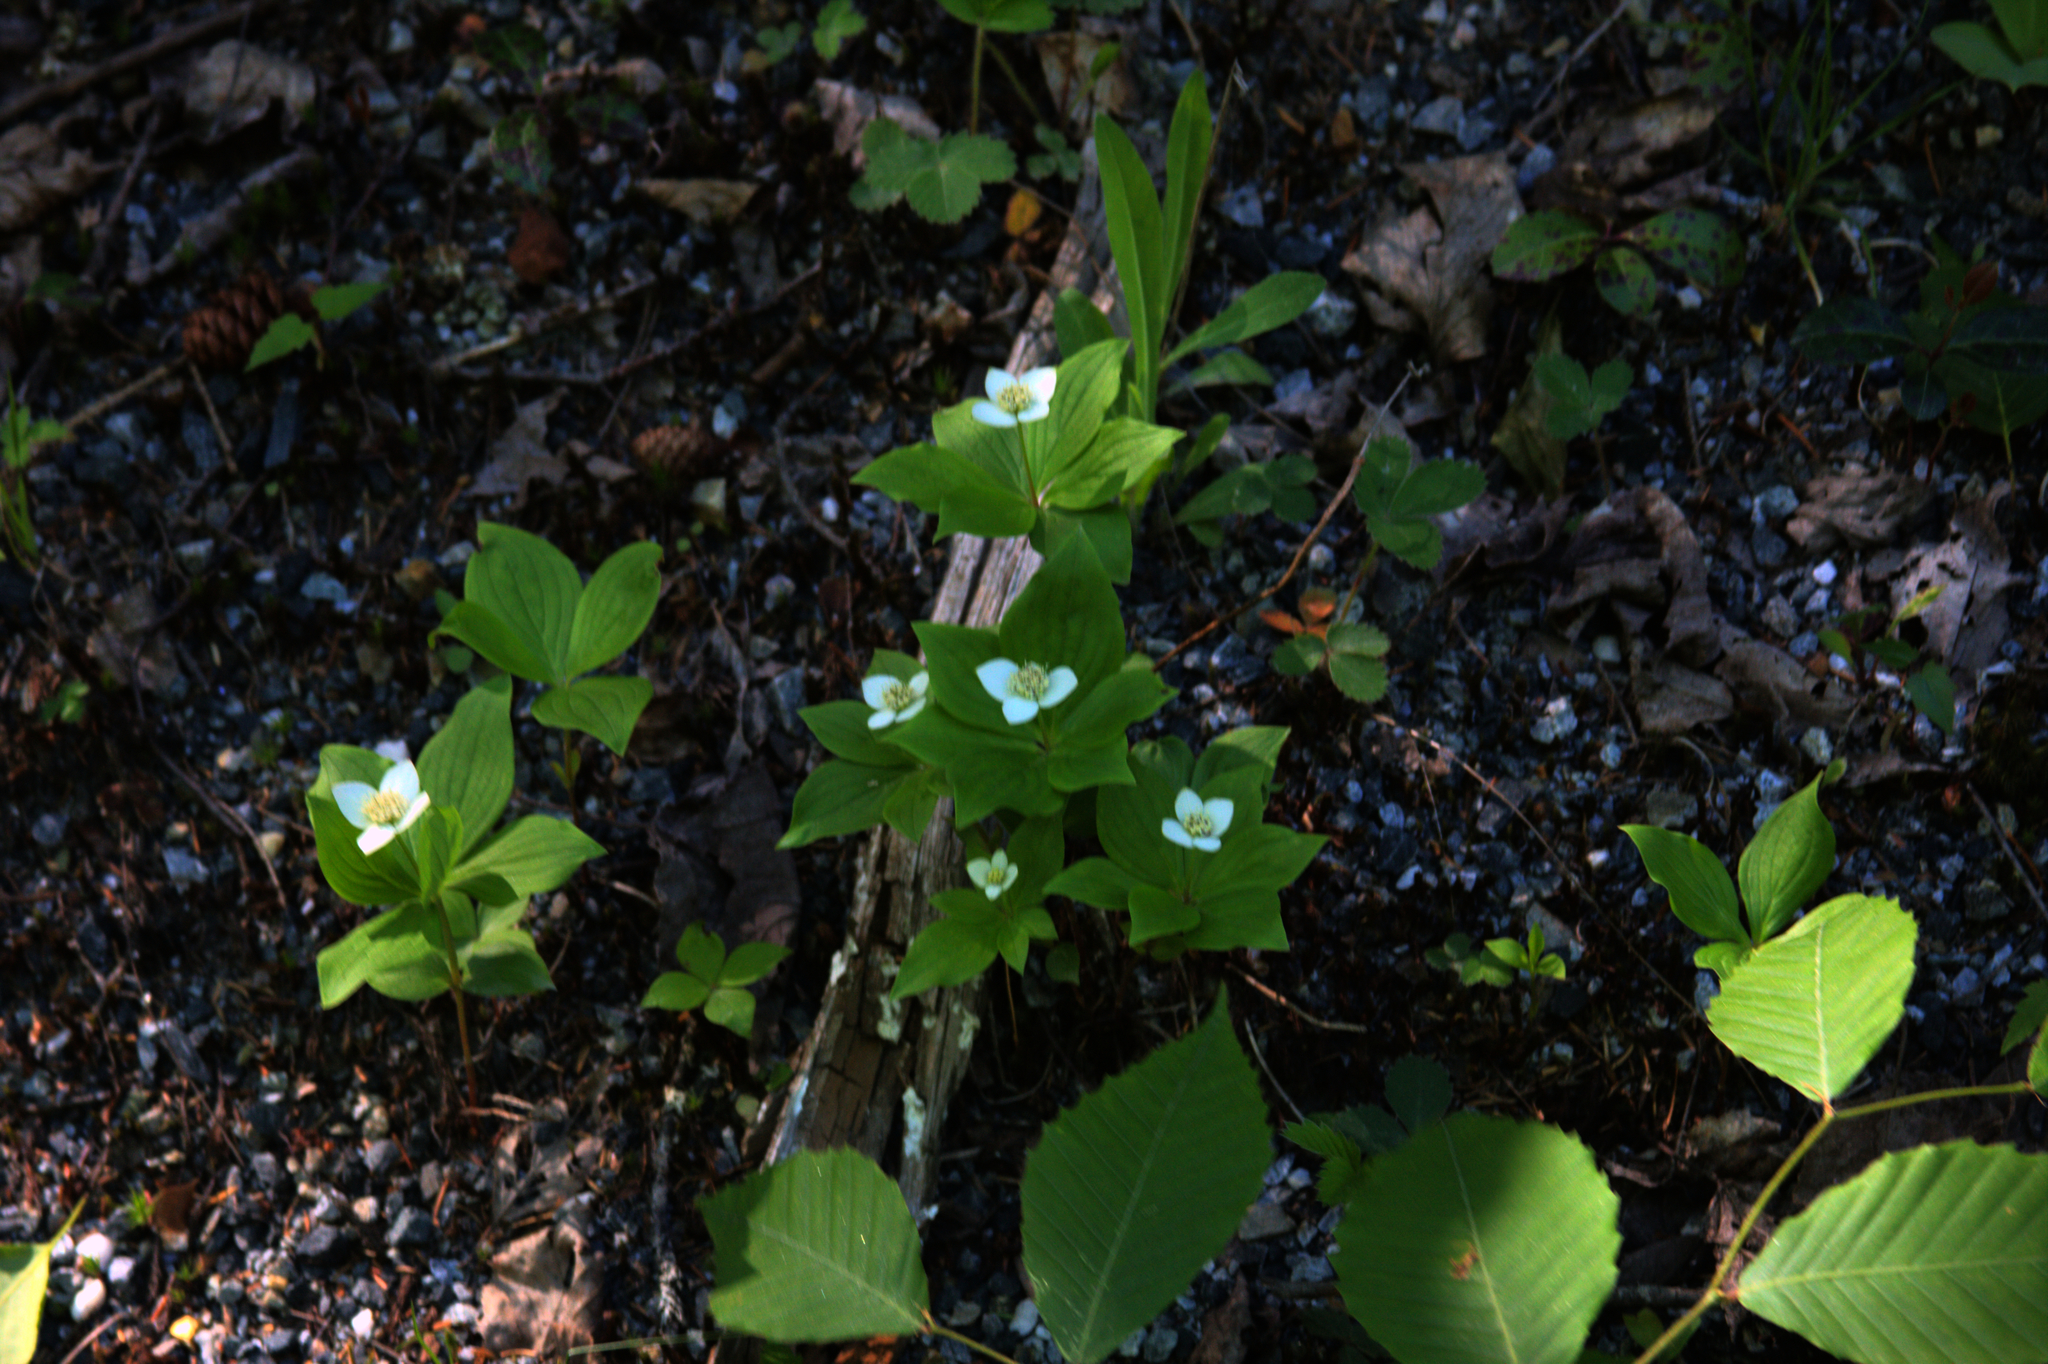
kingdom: Plantae
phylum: Tracheophyta
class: Magnoliopsida
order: Cornales
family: Cornaceae
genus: Cornus
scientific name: Cornus canadensis
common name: Creeping dogwood
